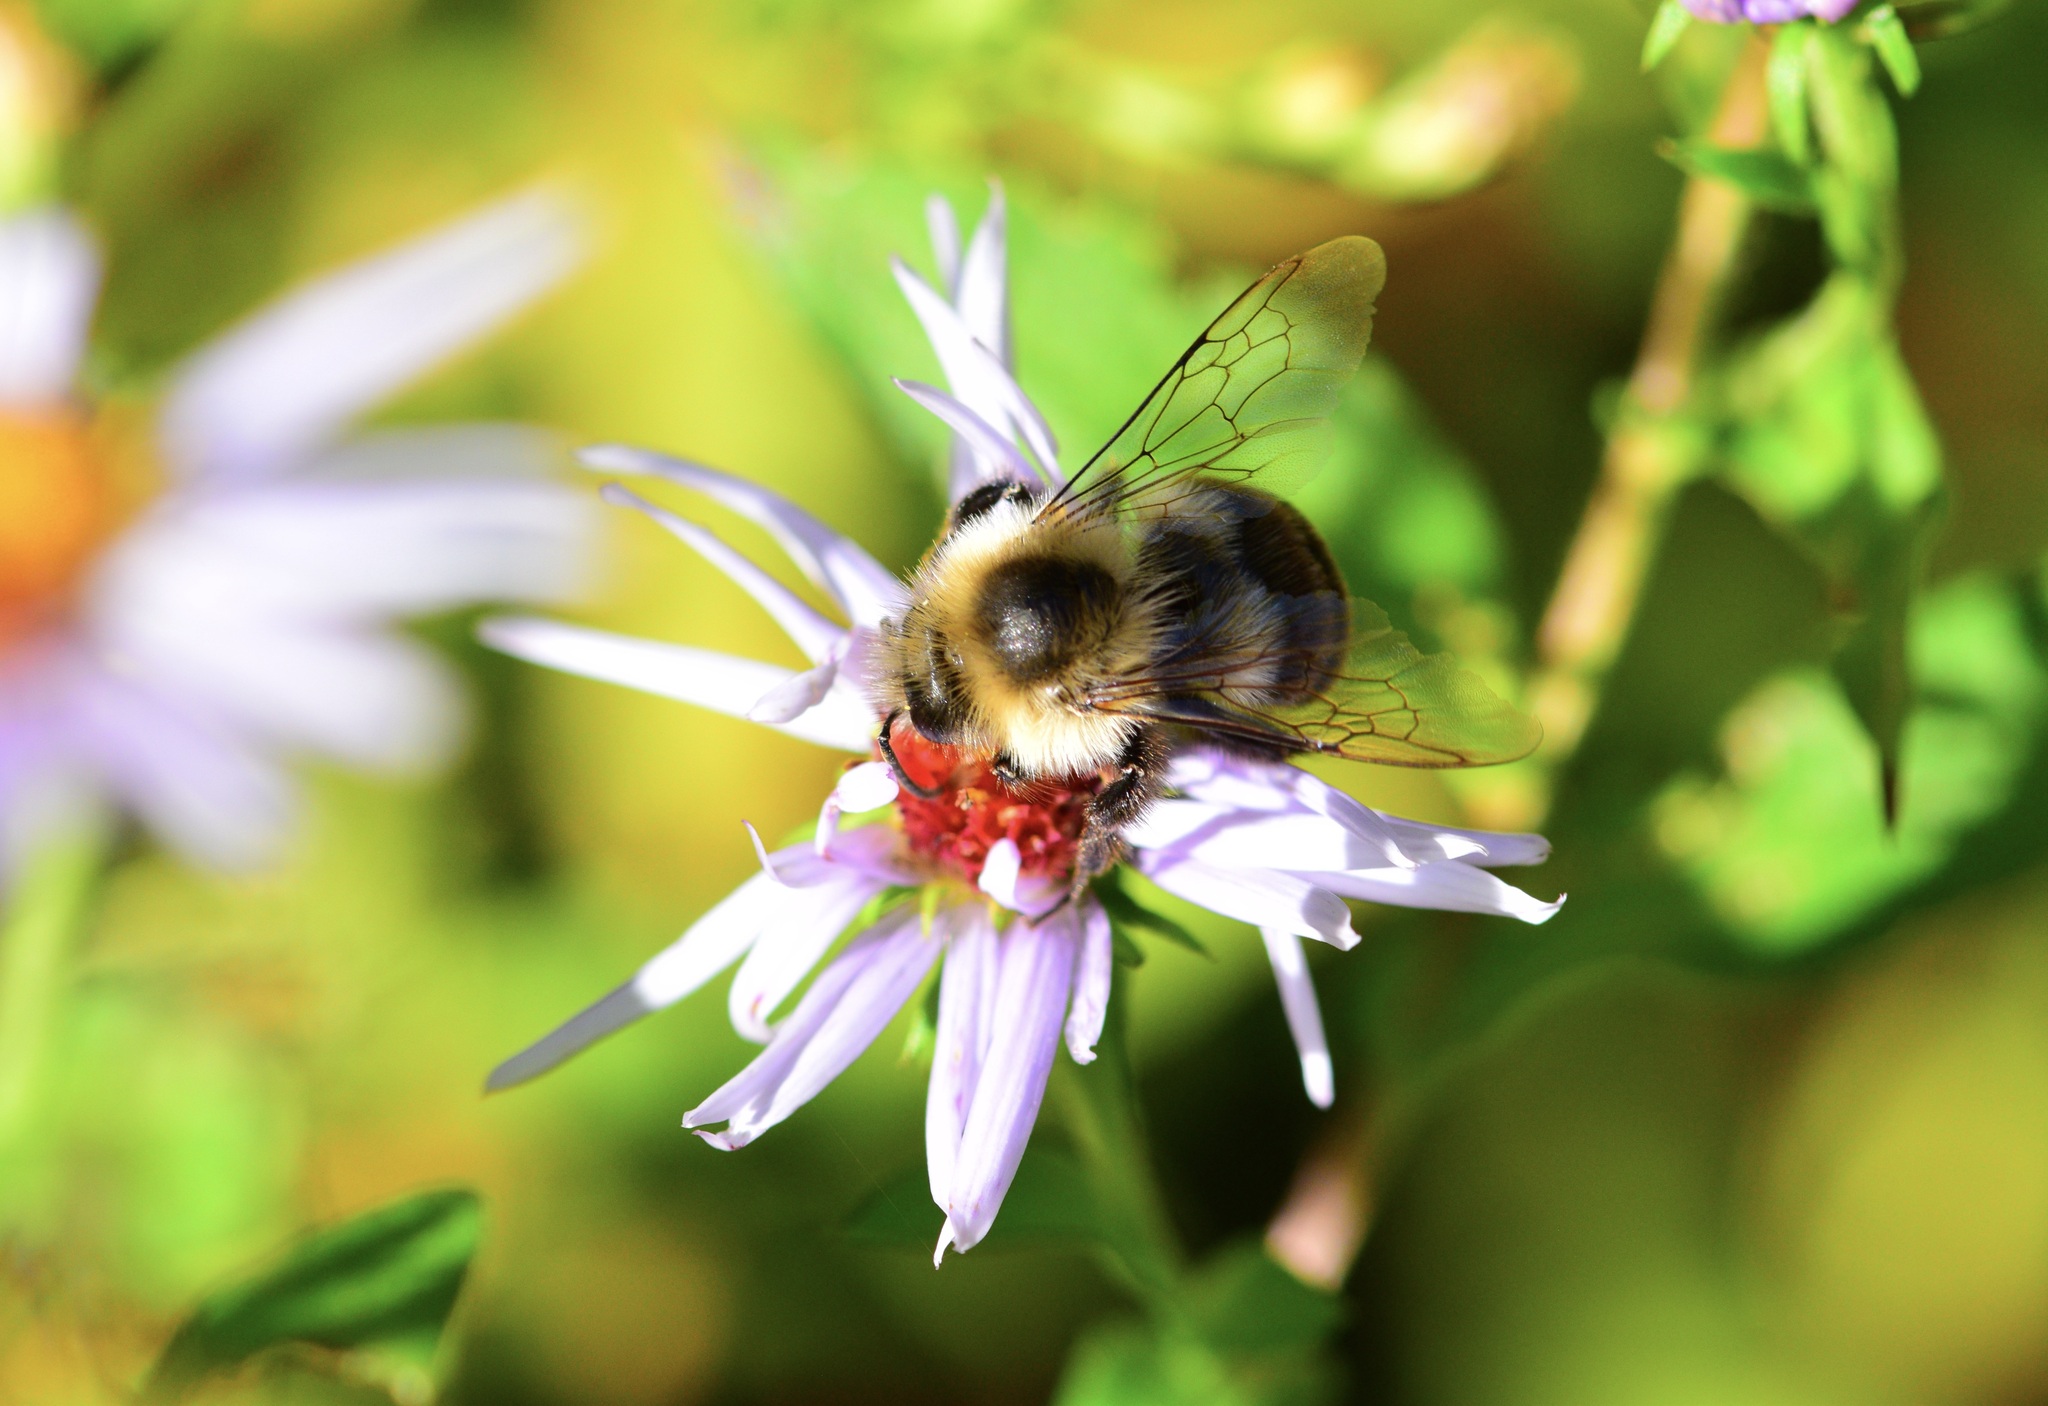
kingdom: Animalia
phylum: Arthropoda
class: Insecta
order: Hymenoptera
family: Apidae
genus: Bombus
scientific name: Bombus impatiens
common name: Common eastern bumble bee
